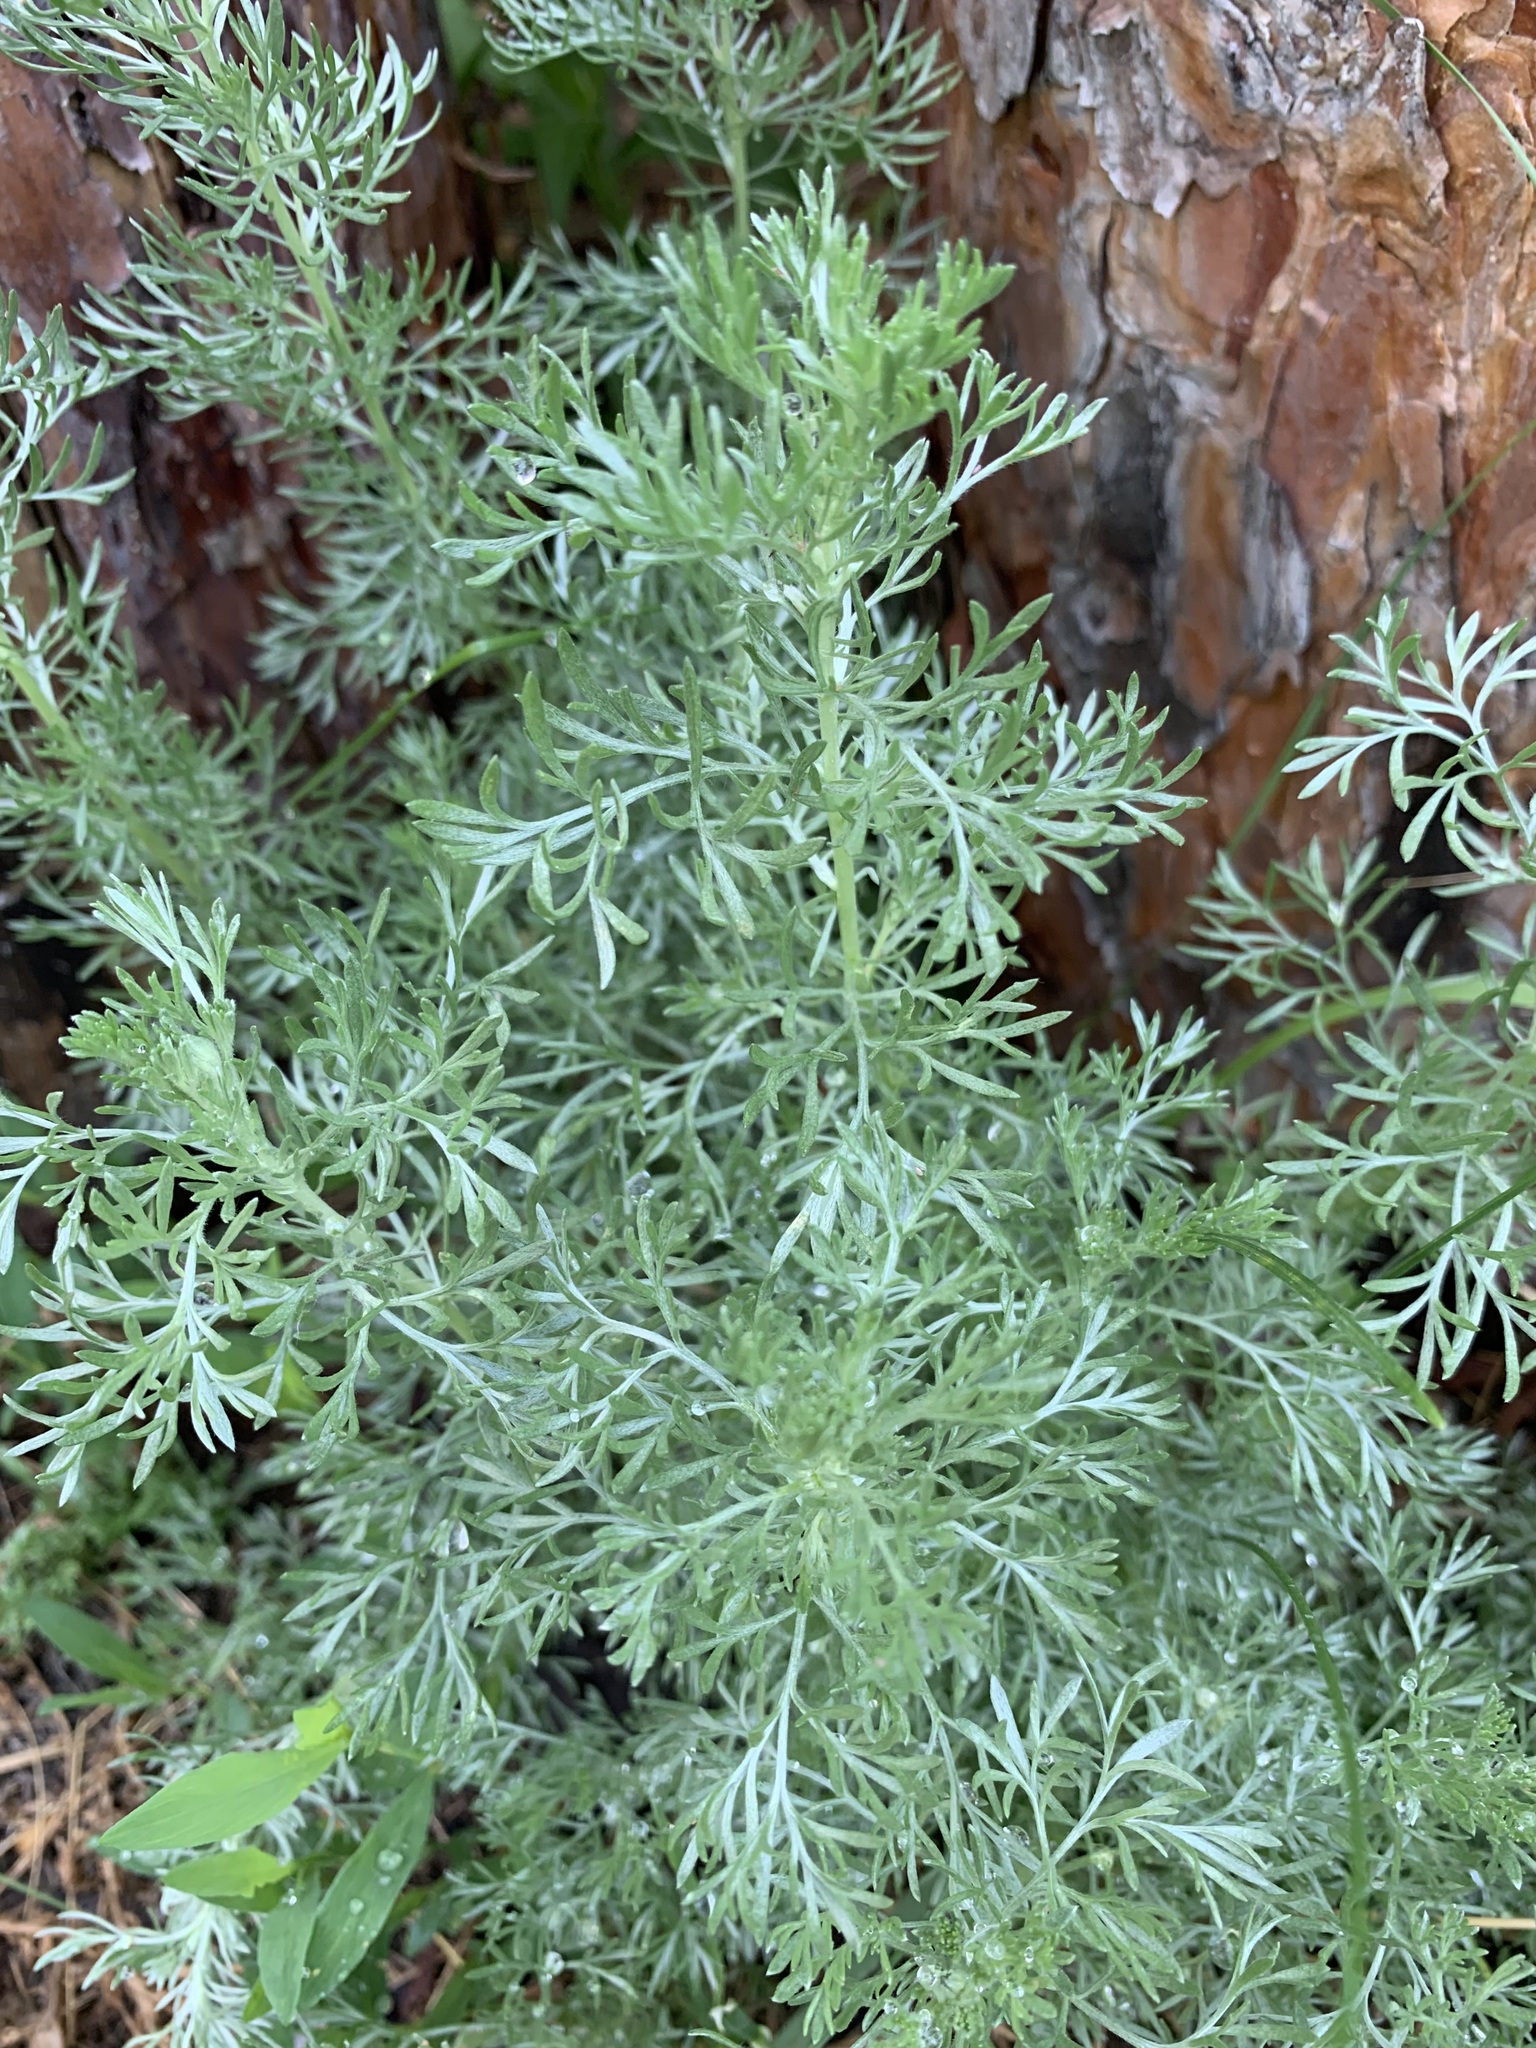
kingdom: Plantae
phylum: Tracheophyta
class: Magnoliopsida
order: Asterales
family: Asteraceae
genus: Artemisia
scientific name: Artemisia austriaca
